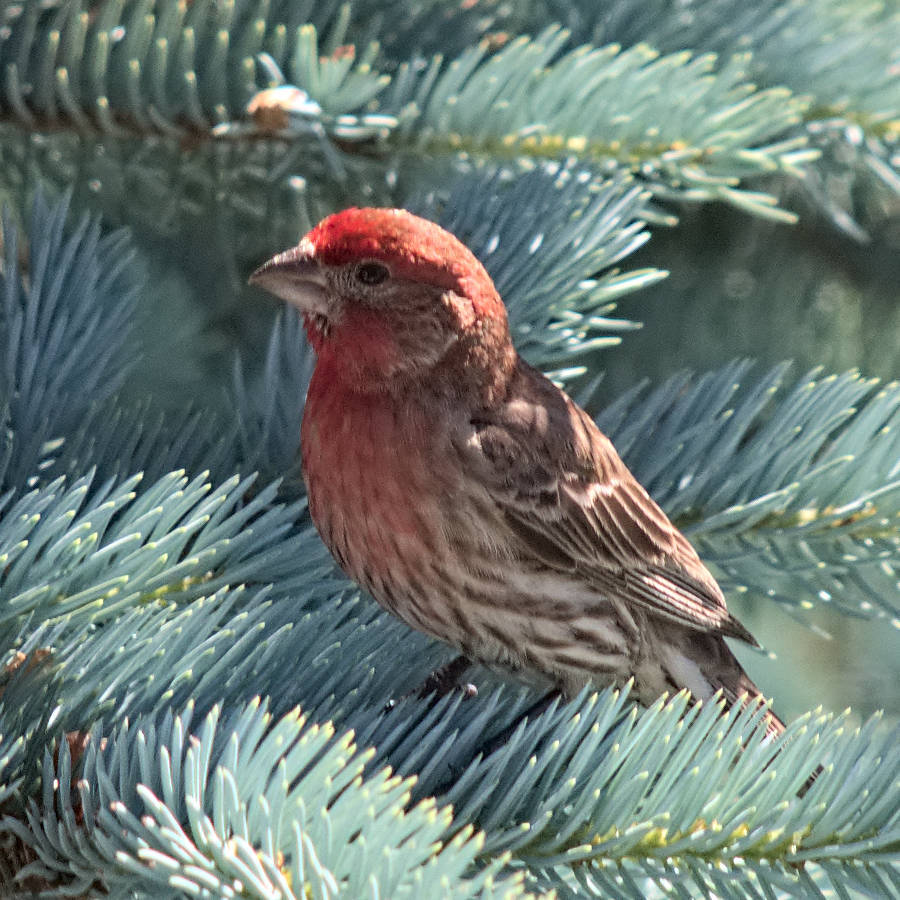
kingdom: Animalia
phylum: Chordata
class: Aves
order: Passeriformes
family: Fringillidae
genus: Haemorhous
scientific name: Haemorhous mexicanus
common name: House finch
